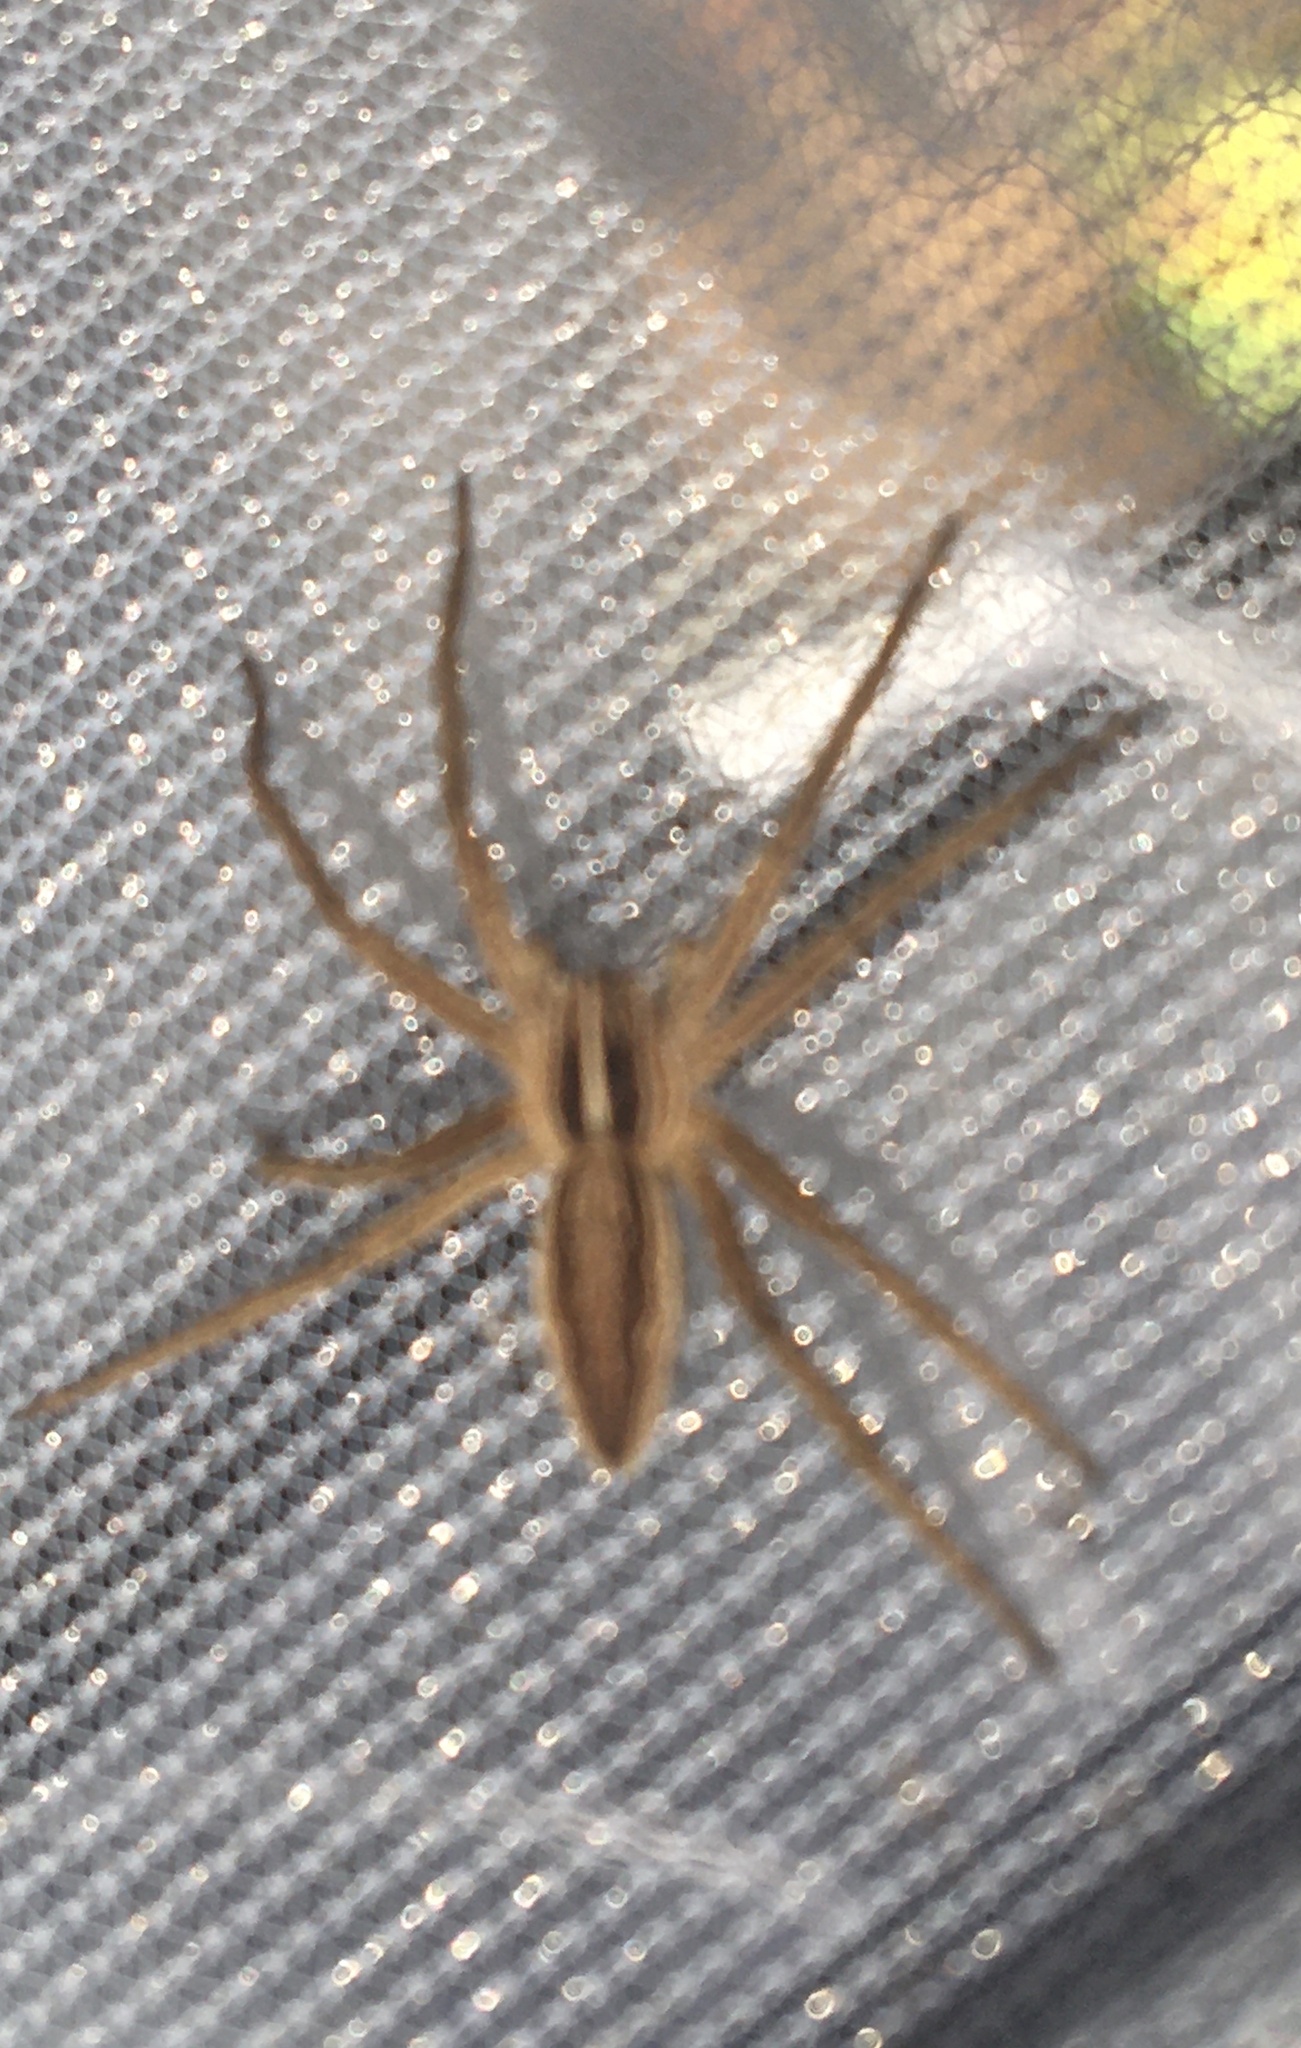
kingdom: Animalia
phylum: Arthropoda
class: Arachnida
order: Araneae
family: Pisauridae
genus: Pisaura
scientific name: Pisaura mirabilis
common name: Tent spider
